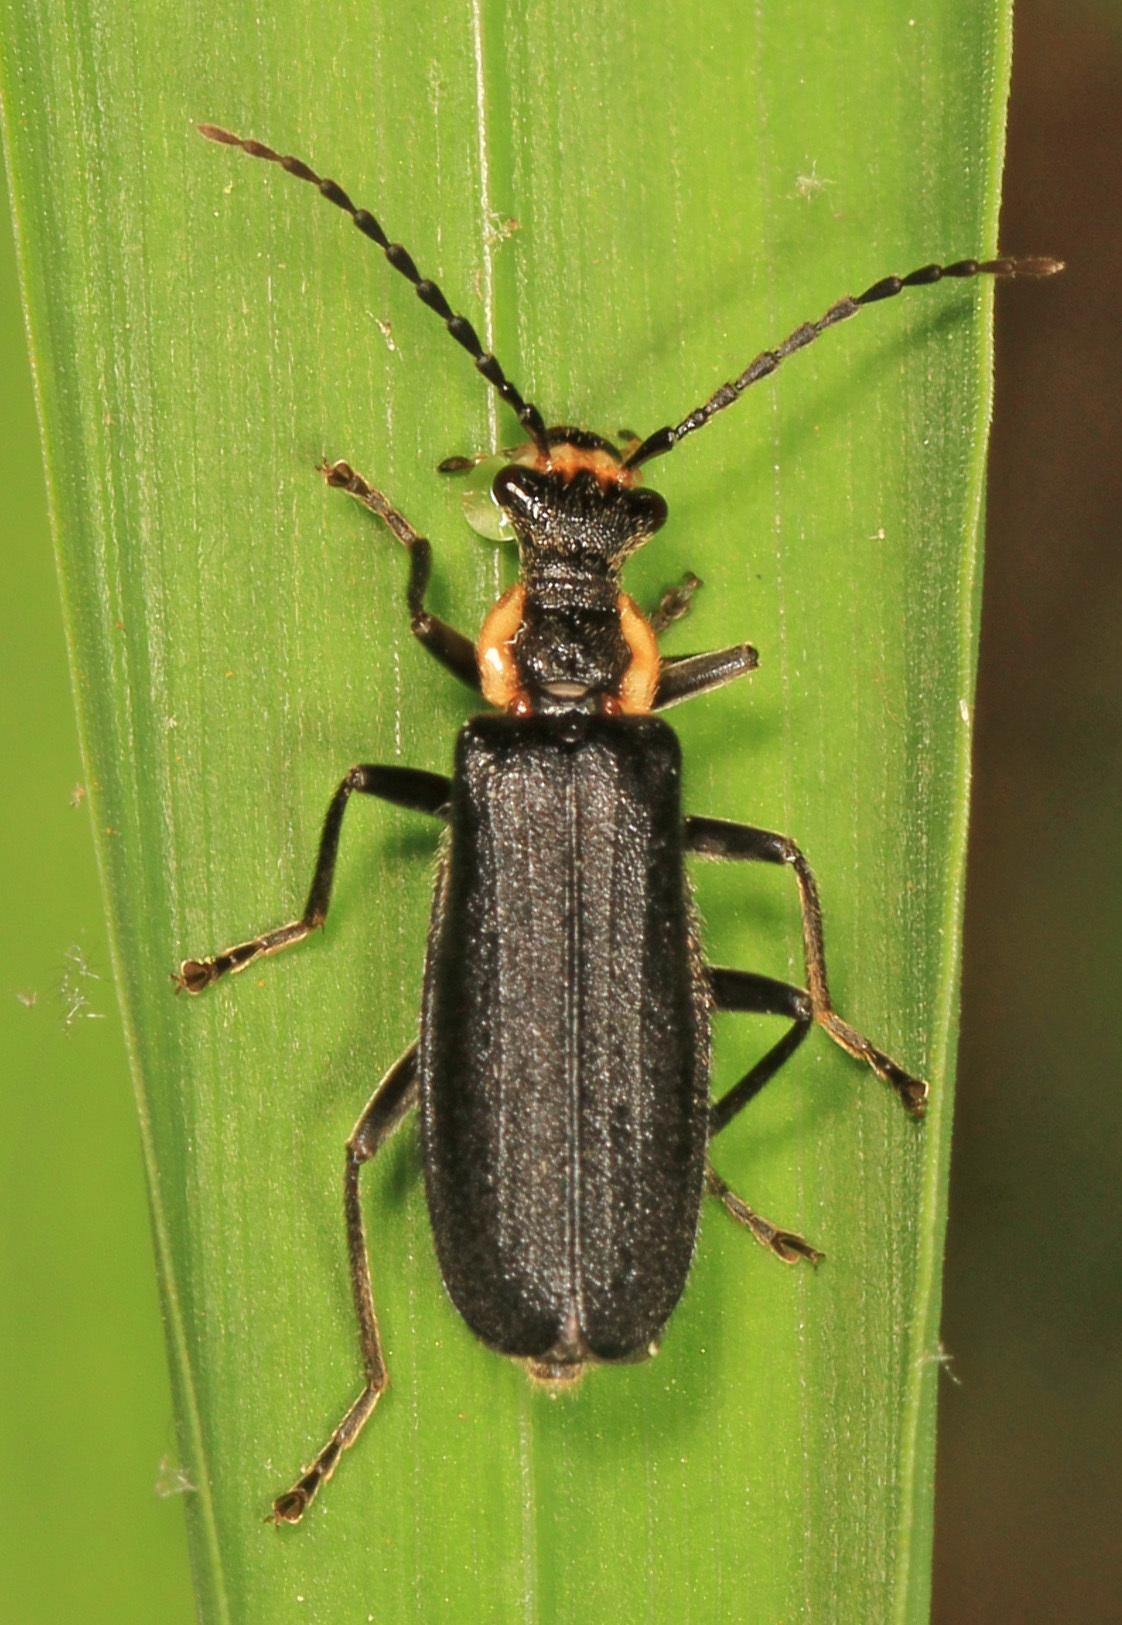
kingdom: Animalia
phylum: Arthropoda
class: Insecta
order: Coleoptera
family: Cantharidae
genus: Podabrus
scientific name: Podabrus rugosulus
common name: Wrinkled soldier beetle
